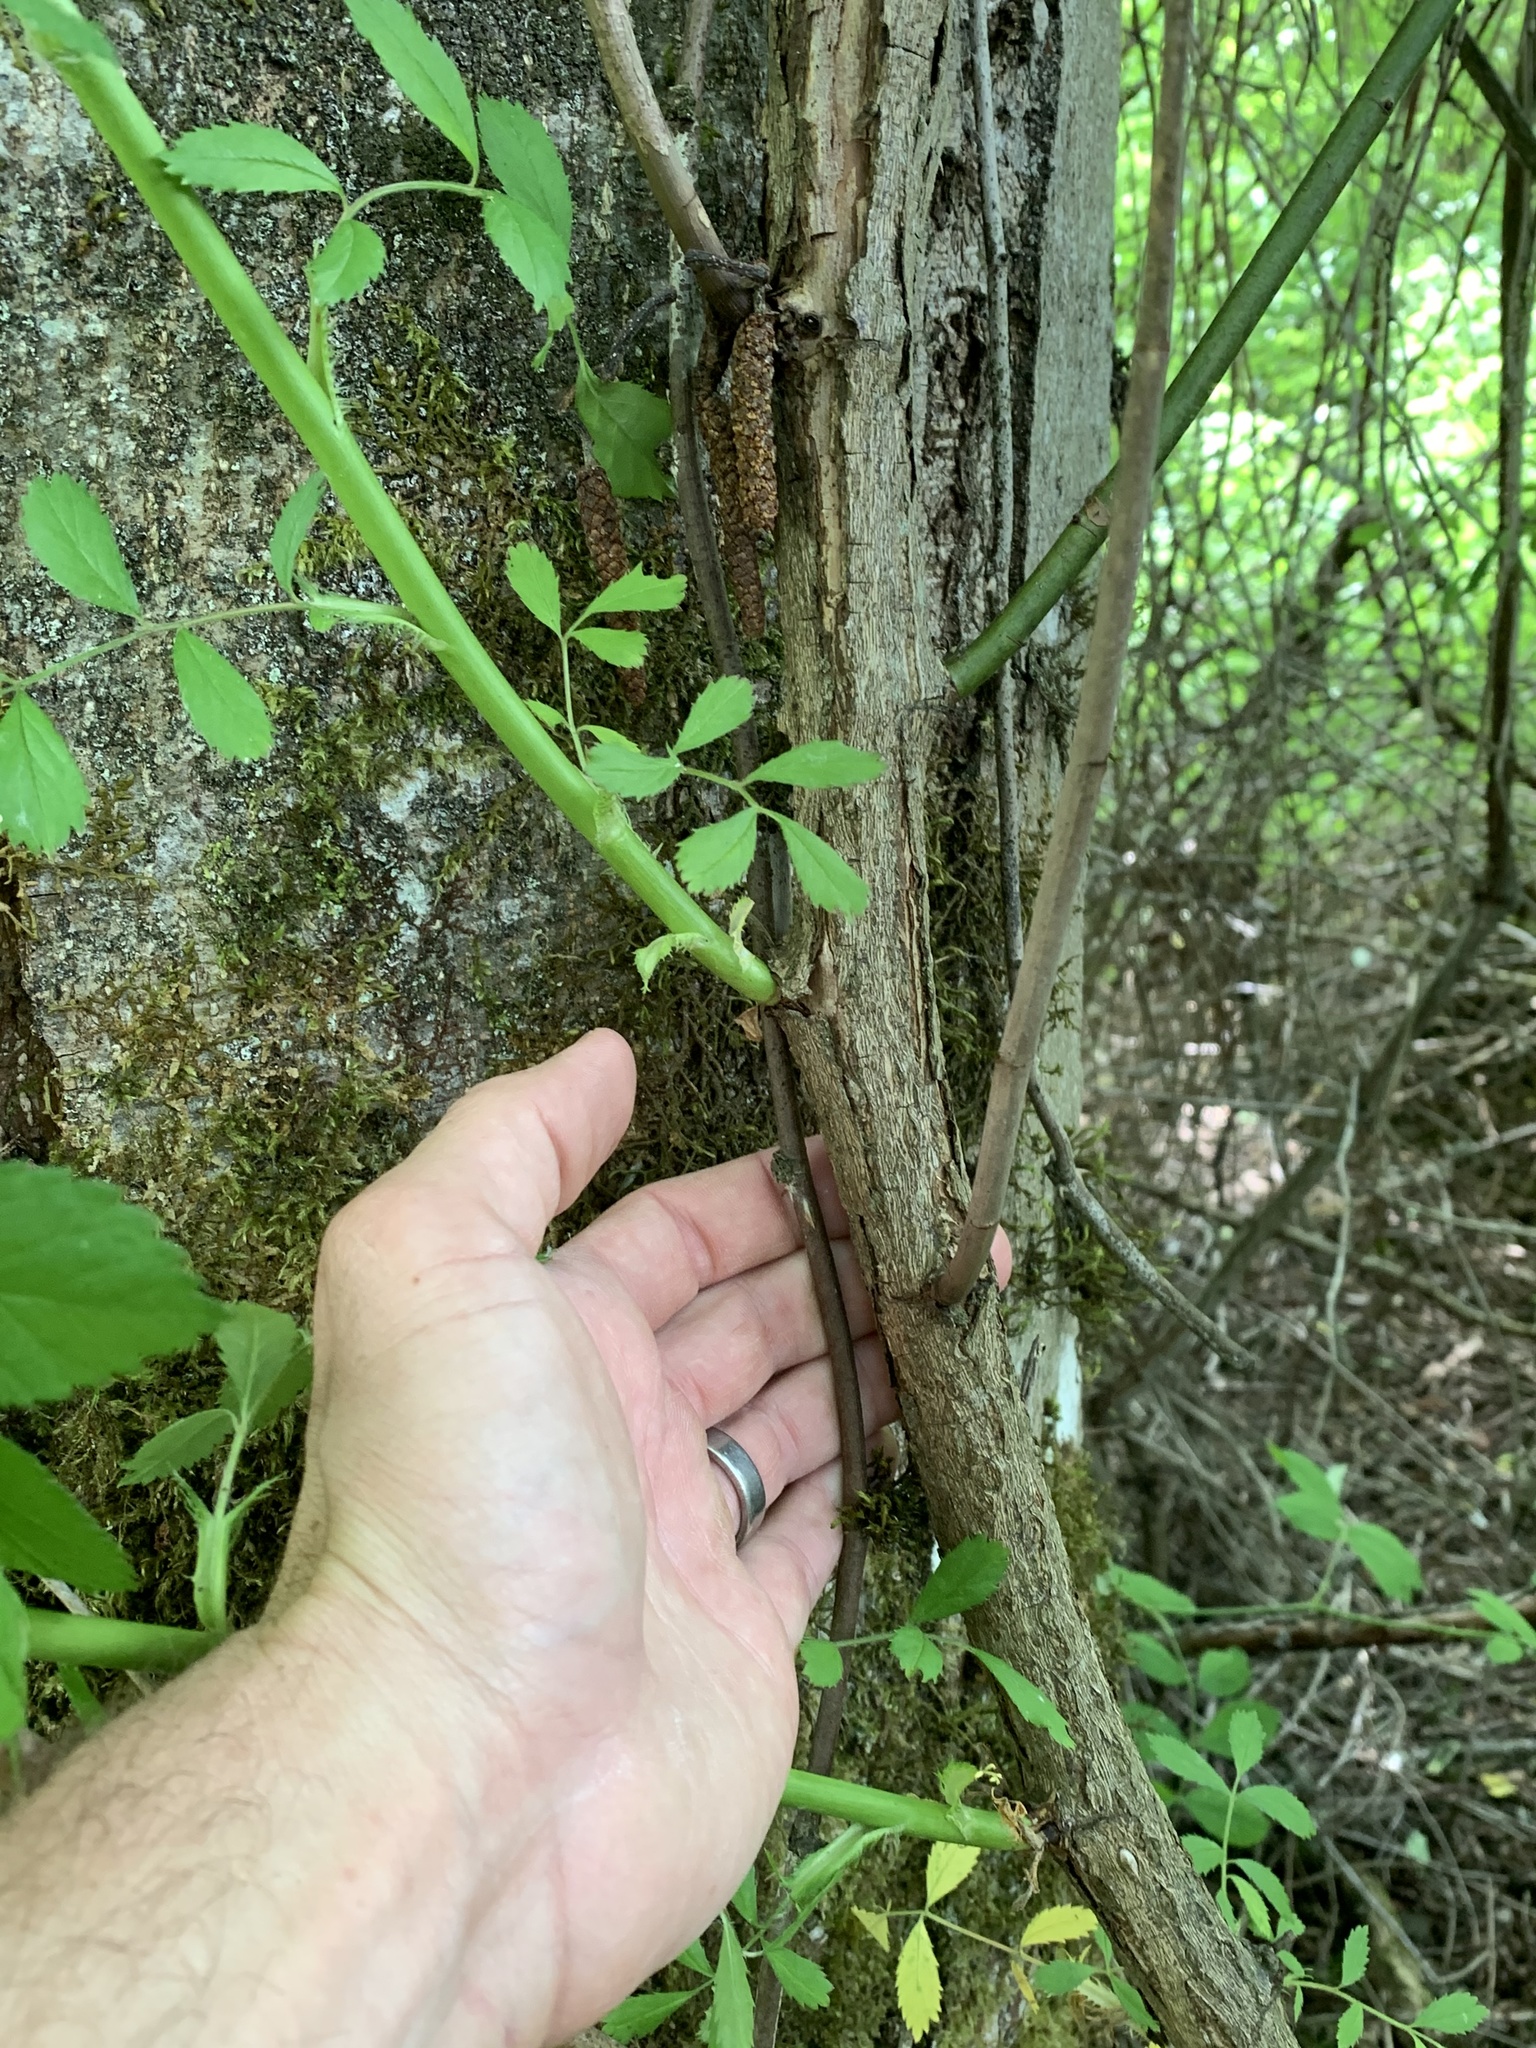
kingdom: Plantae
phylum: Tracheophyta
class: Magnoliopsida
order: Rosales
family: Rosaceae
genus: Rosa
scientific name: Rosa multiflora
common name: Multiflora rose
